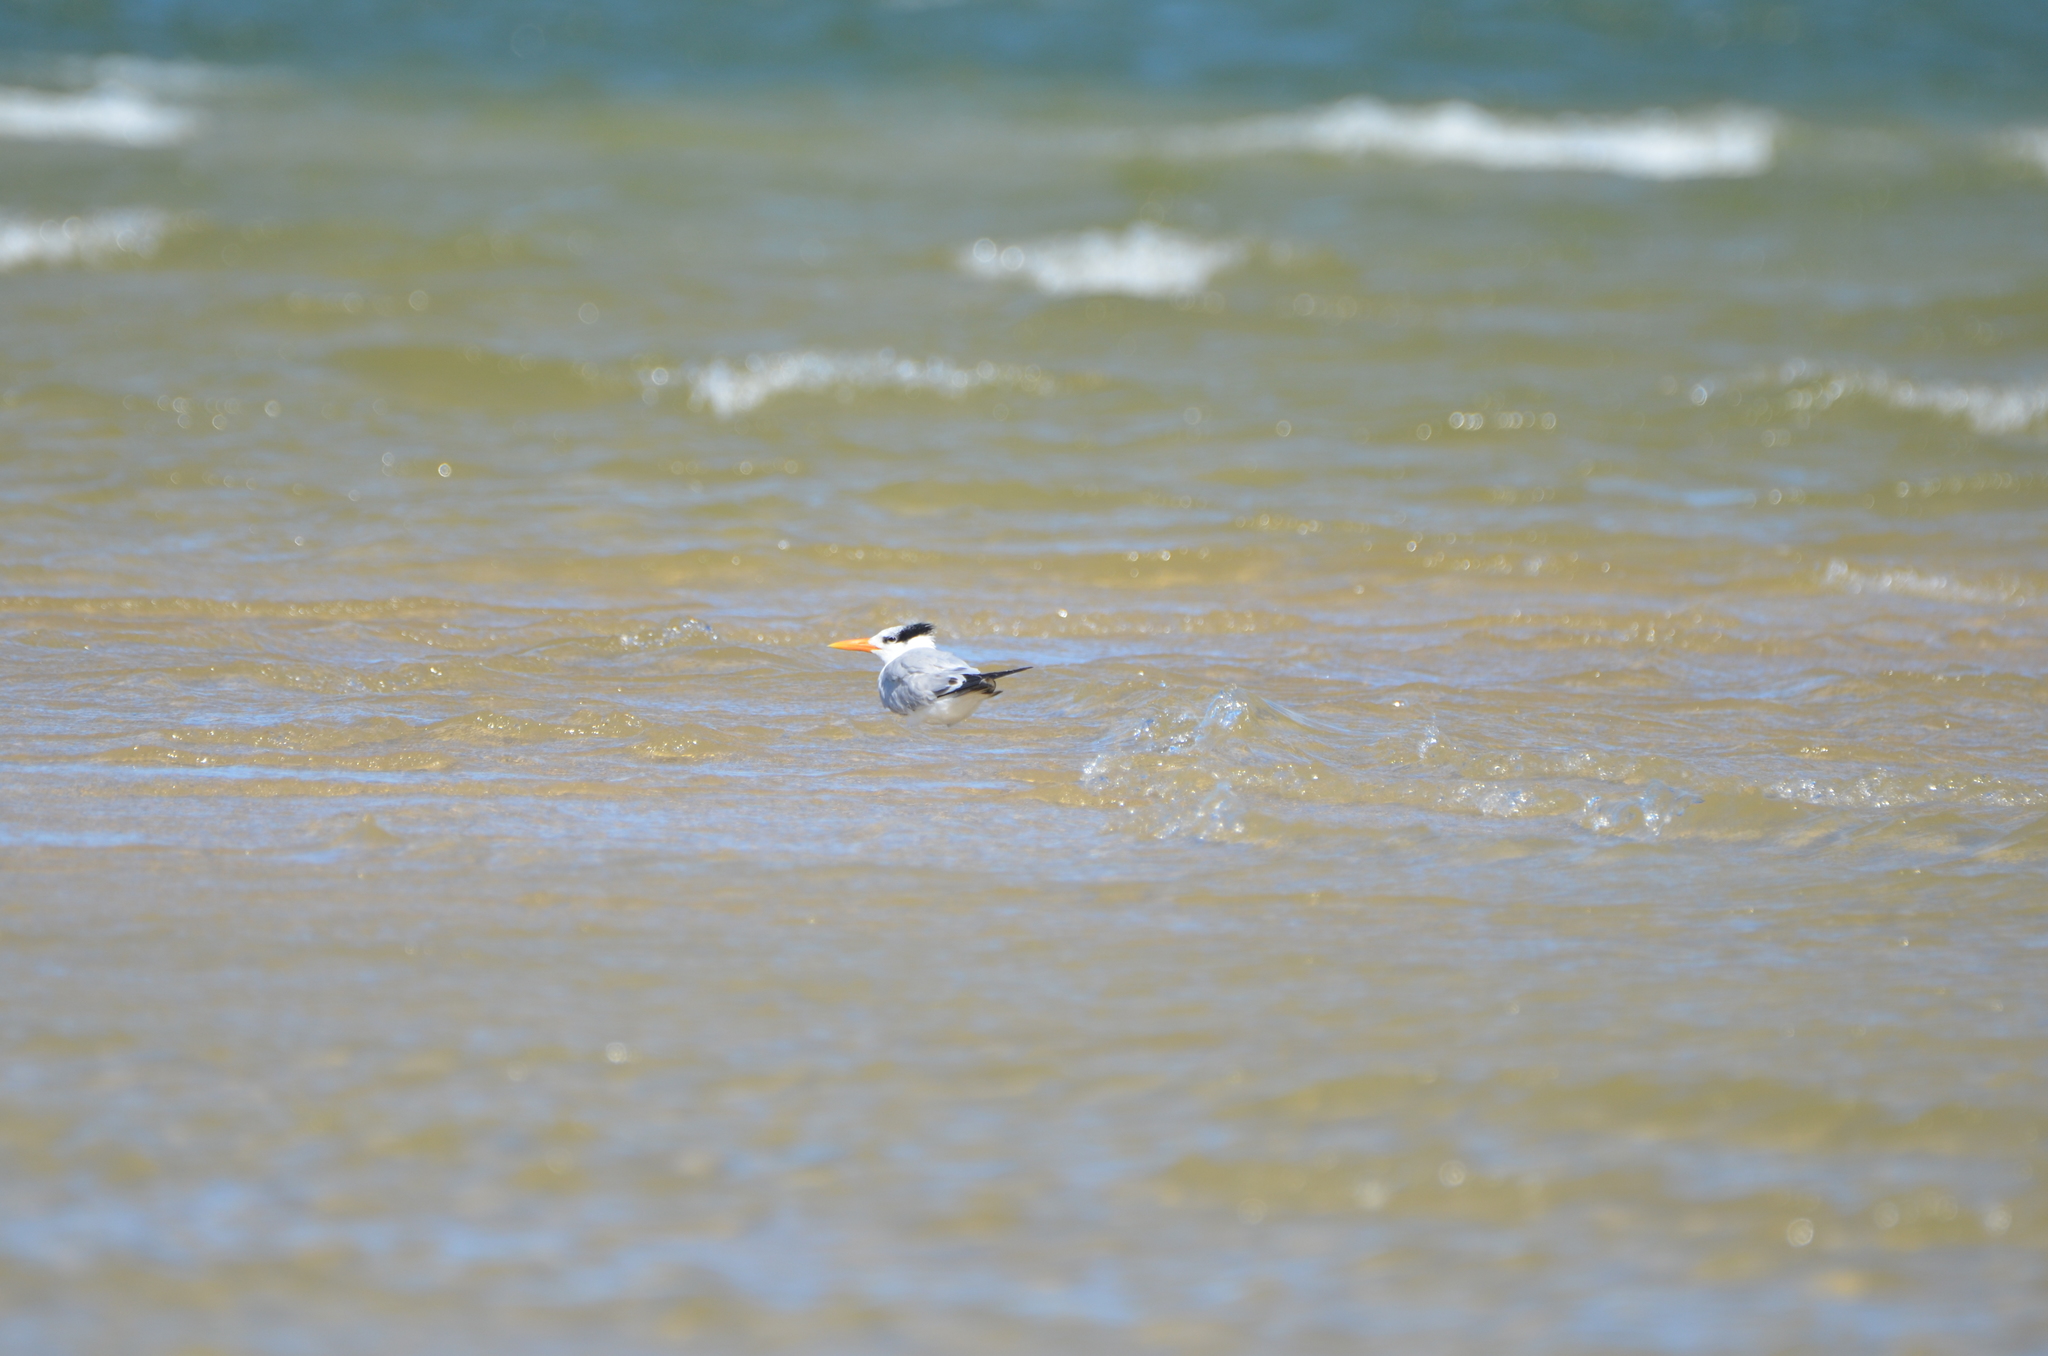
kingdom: Animalia
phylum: Chordata
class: Aves
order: Charadriiformes
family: Laridae
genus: Thalasseus
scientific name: Thalasseus maximus
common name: Royal tern
